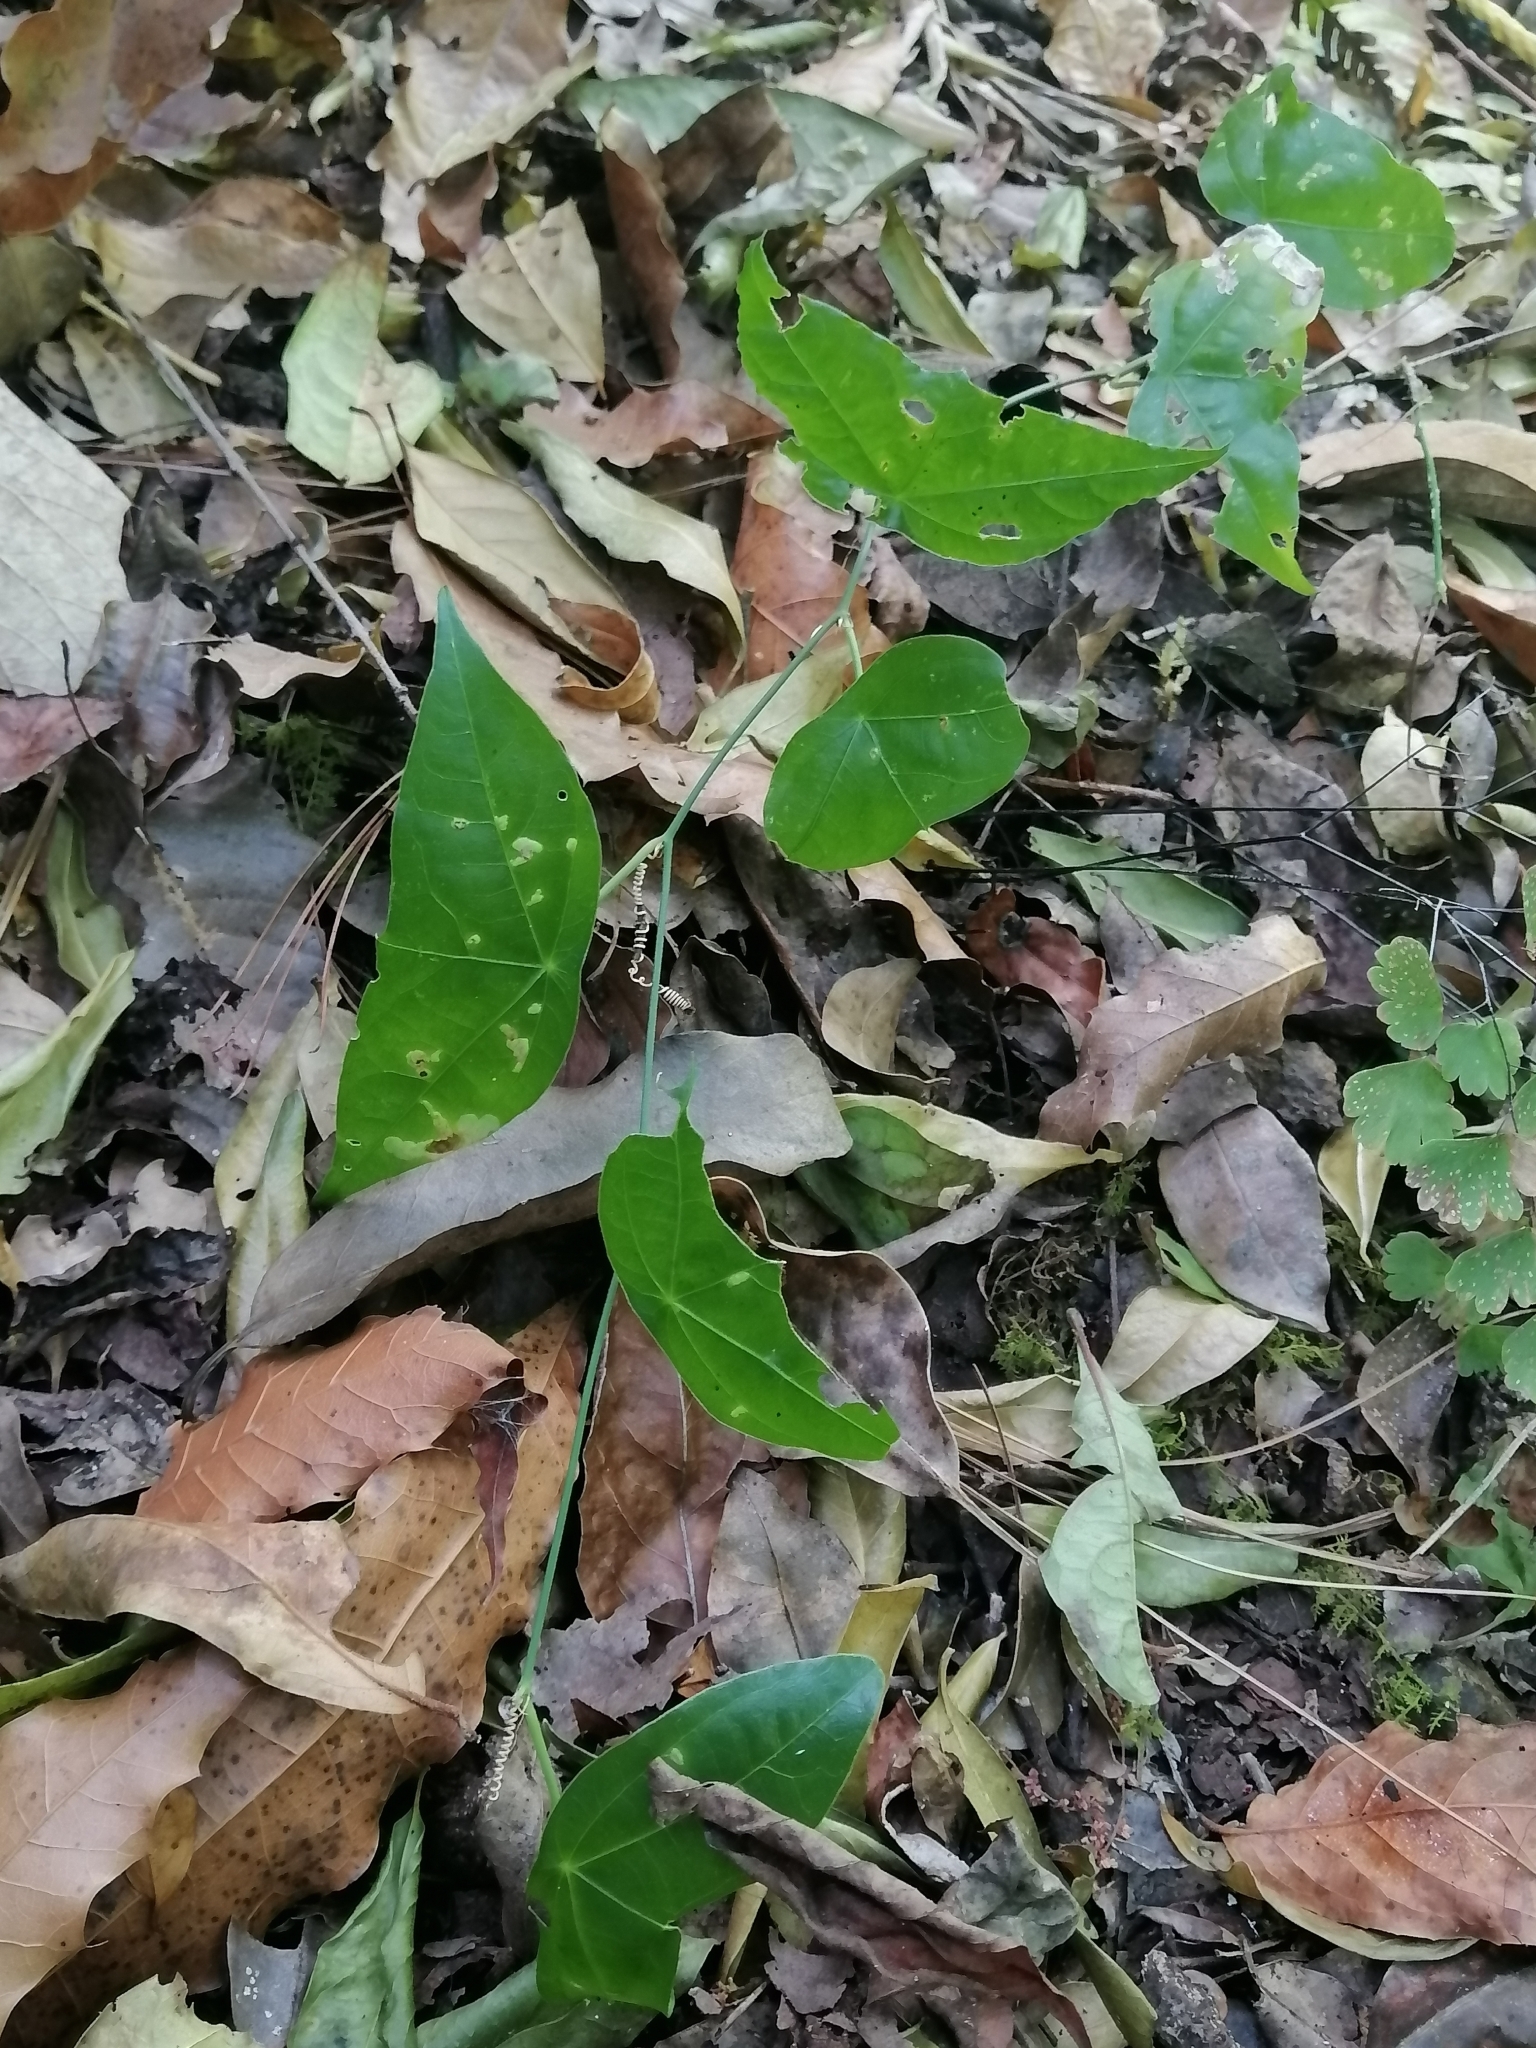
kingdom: Plantae
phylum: Tracheophyta
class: Magnoliopsida
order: Malpighiales
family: Passifloraceae
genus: Passiflora
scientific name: Passiflora mcvaughiana
